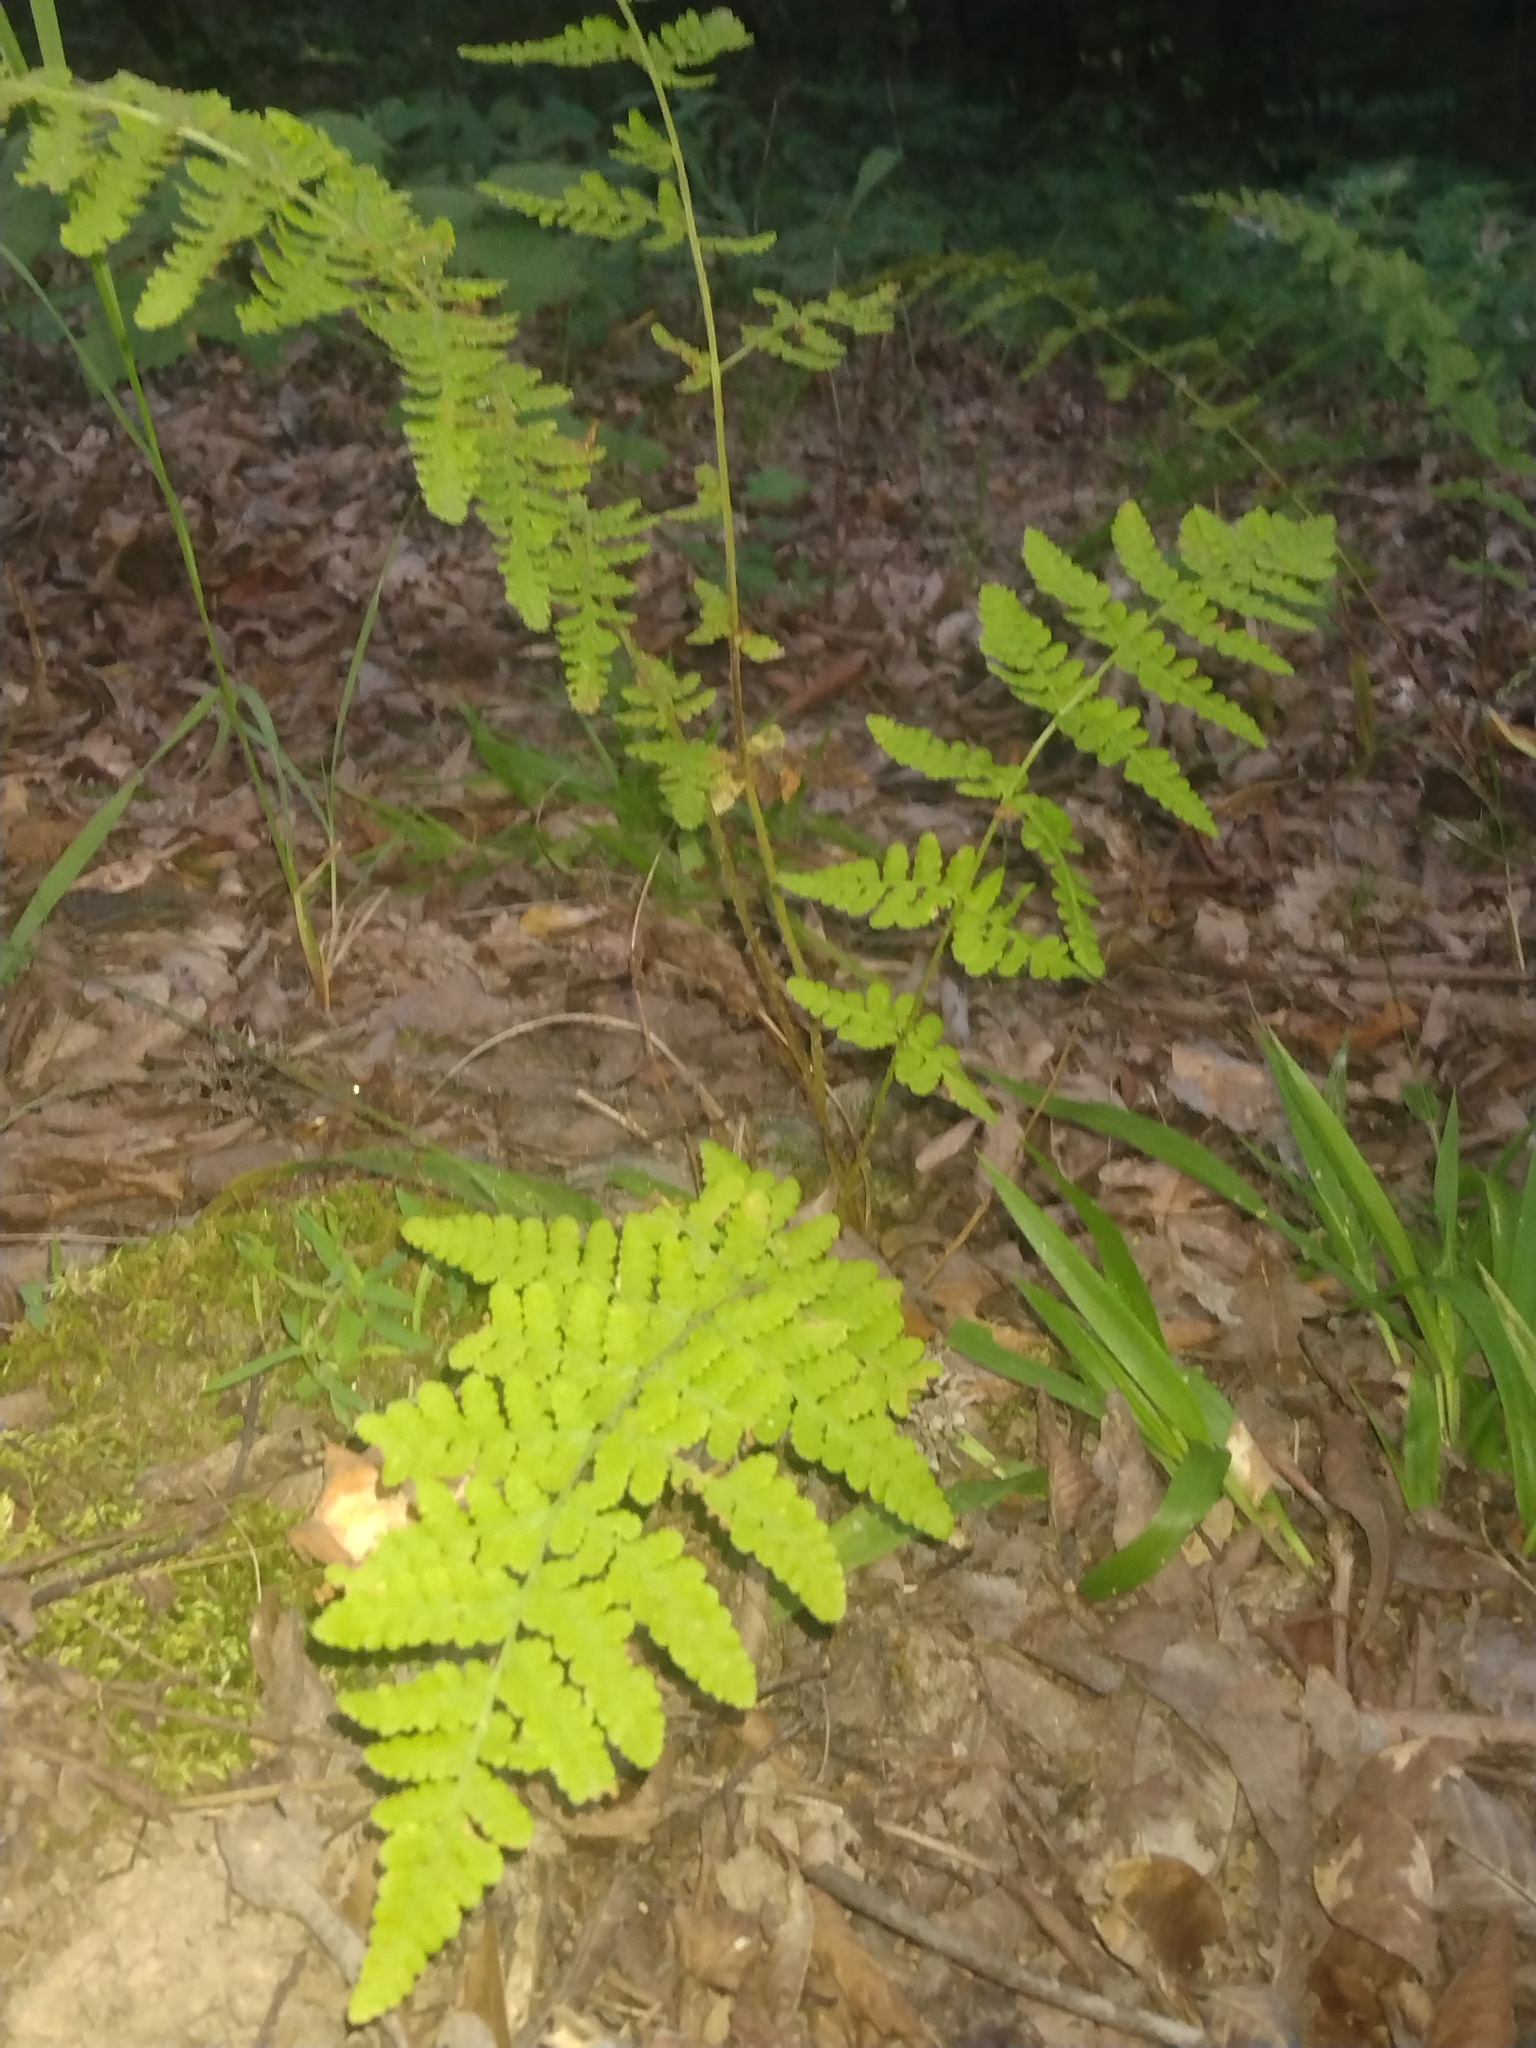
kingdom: Plantae
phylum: Tracheophyta
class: Polypodiopsida
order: Polypodiales
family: Woodsiaceae
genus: Physematium
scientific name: Physematium obtusum
